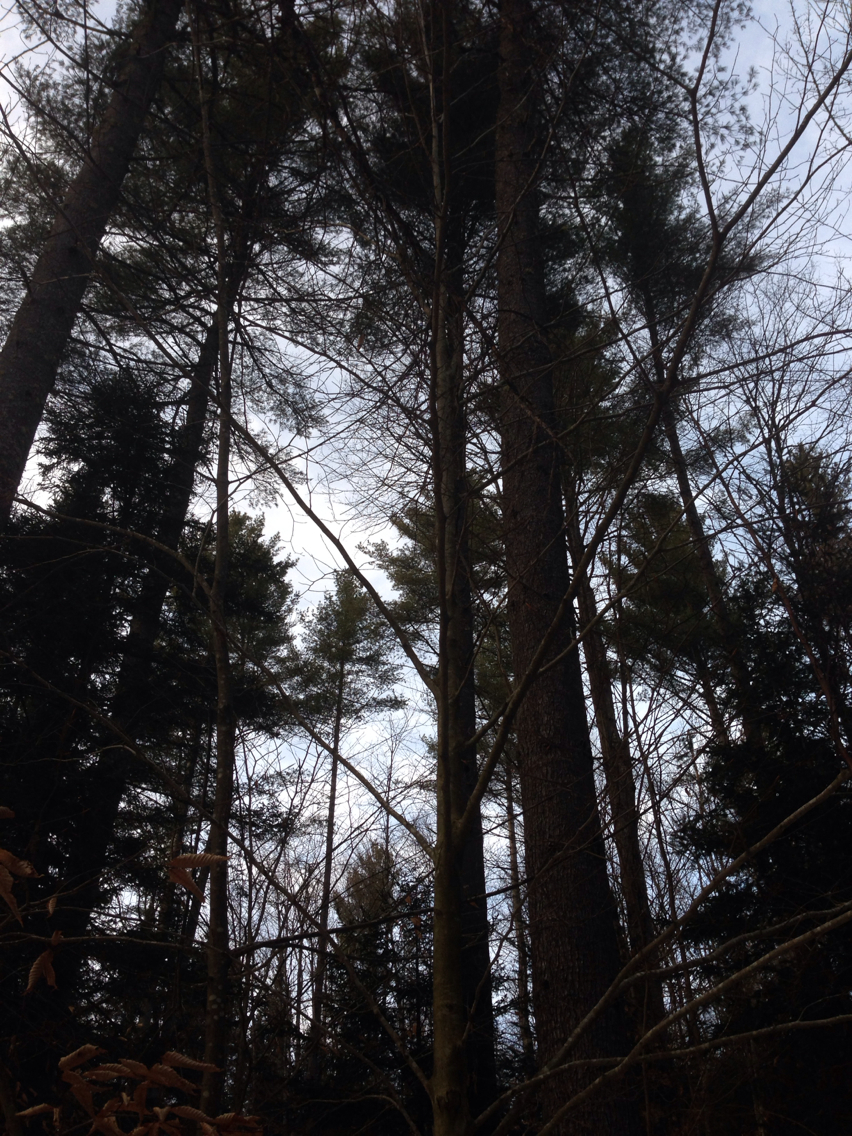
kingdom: Plantae
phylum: Tracheophyta
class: Pinopsida
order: Pinales
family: Pinaceae
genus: Pinus
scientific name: Pinus strobus
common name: Weymouth pine
